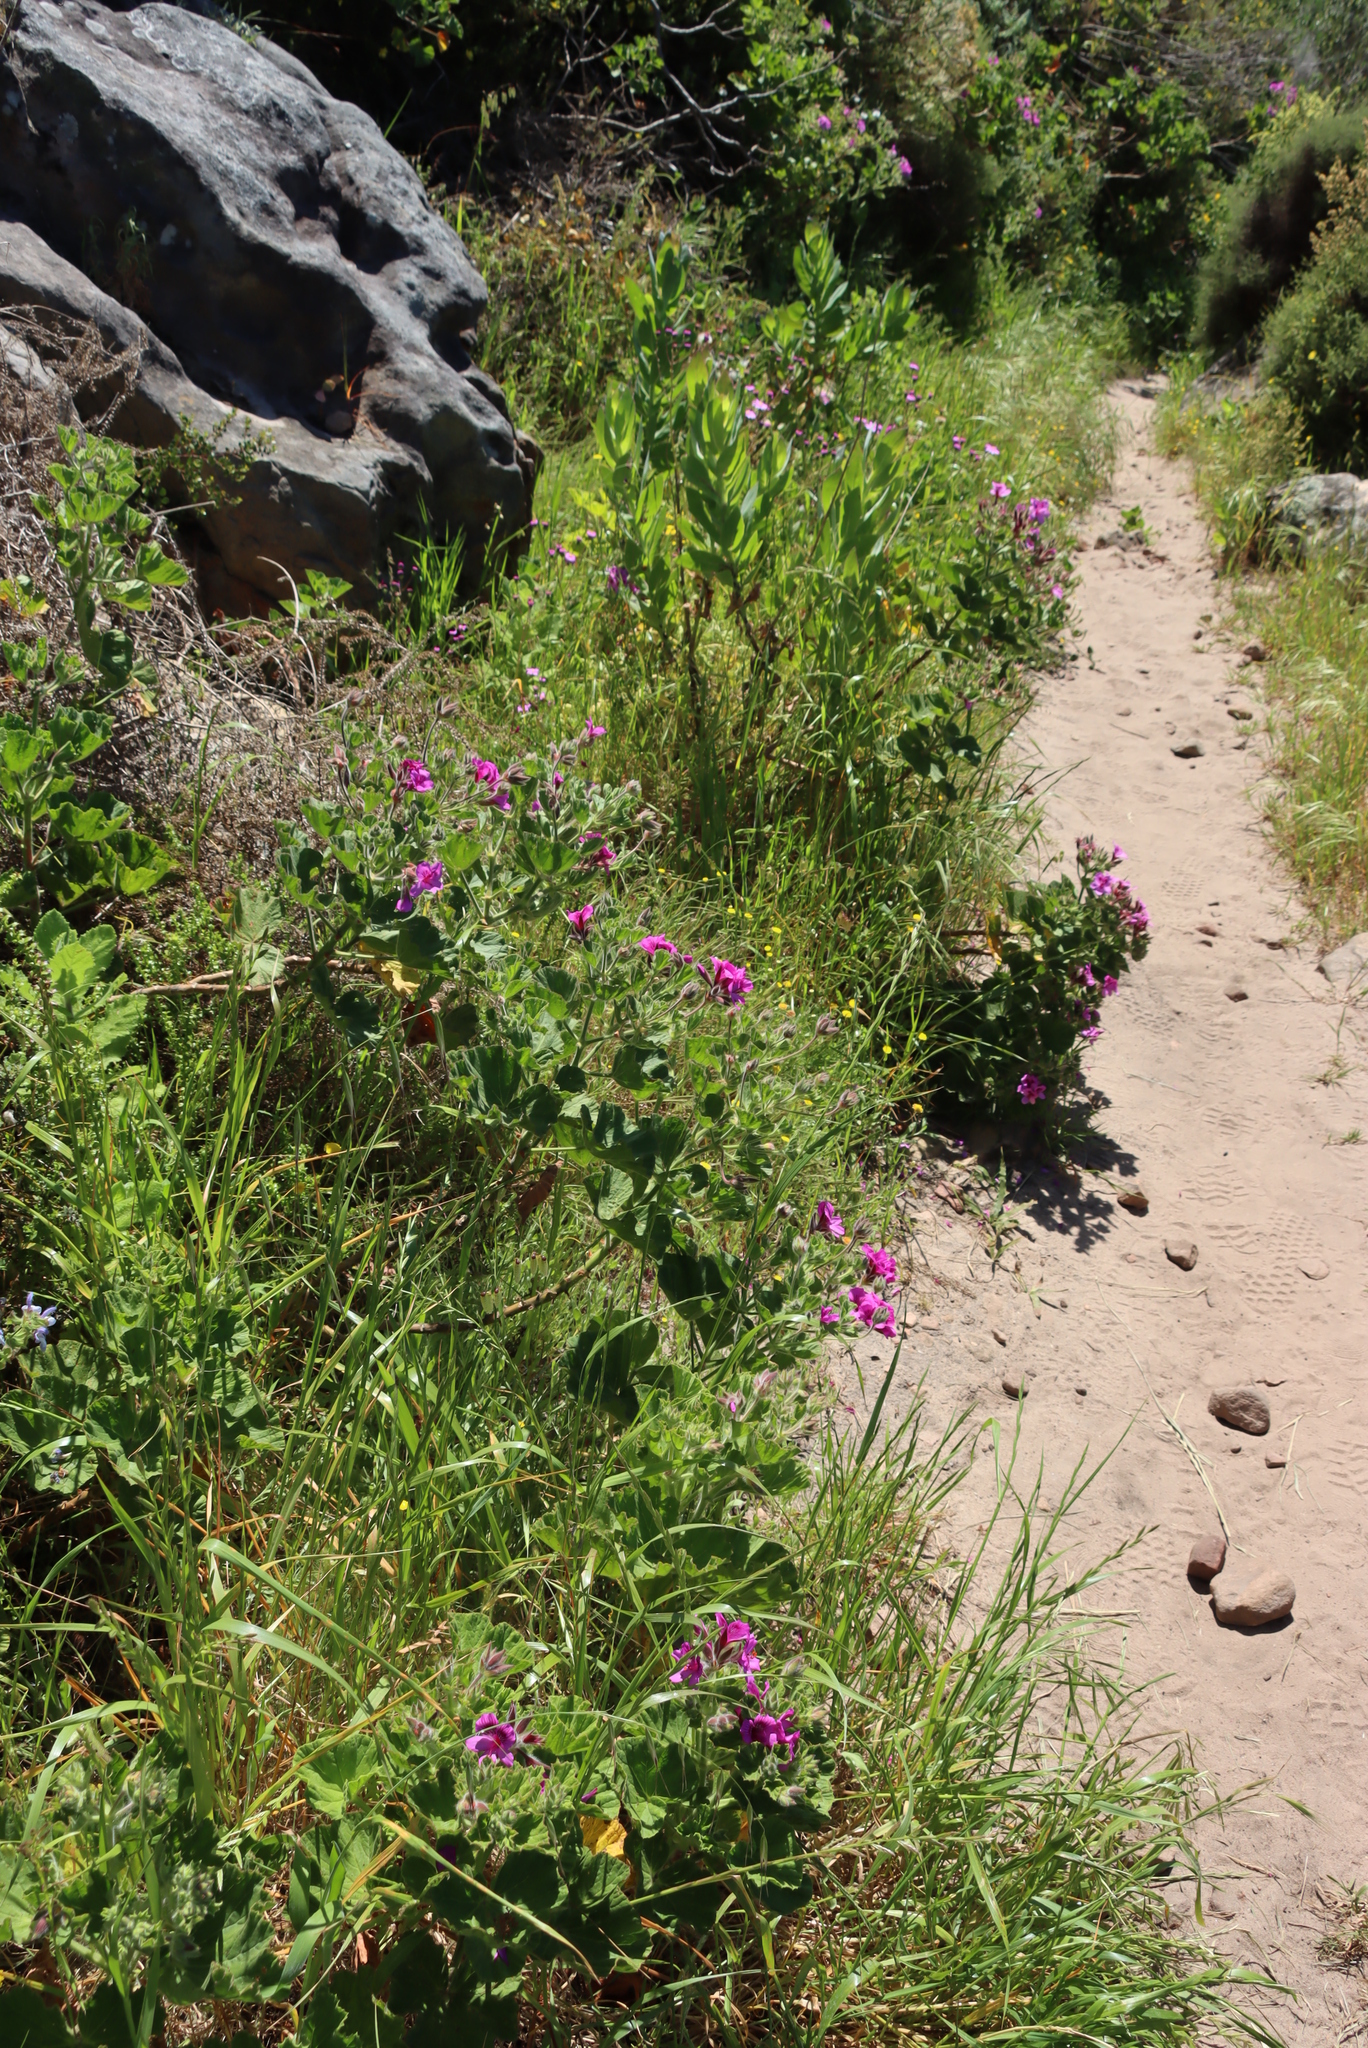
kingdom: Plantae
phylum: Tracheophyta
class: Magnoliopsida
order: Geraniales
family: Geraniaceae
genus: Pelargonium
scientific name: Pelargonium cucullatum
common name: Tree pelargonium
